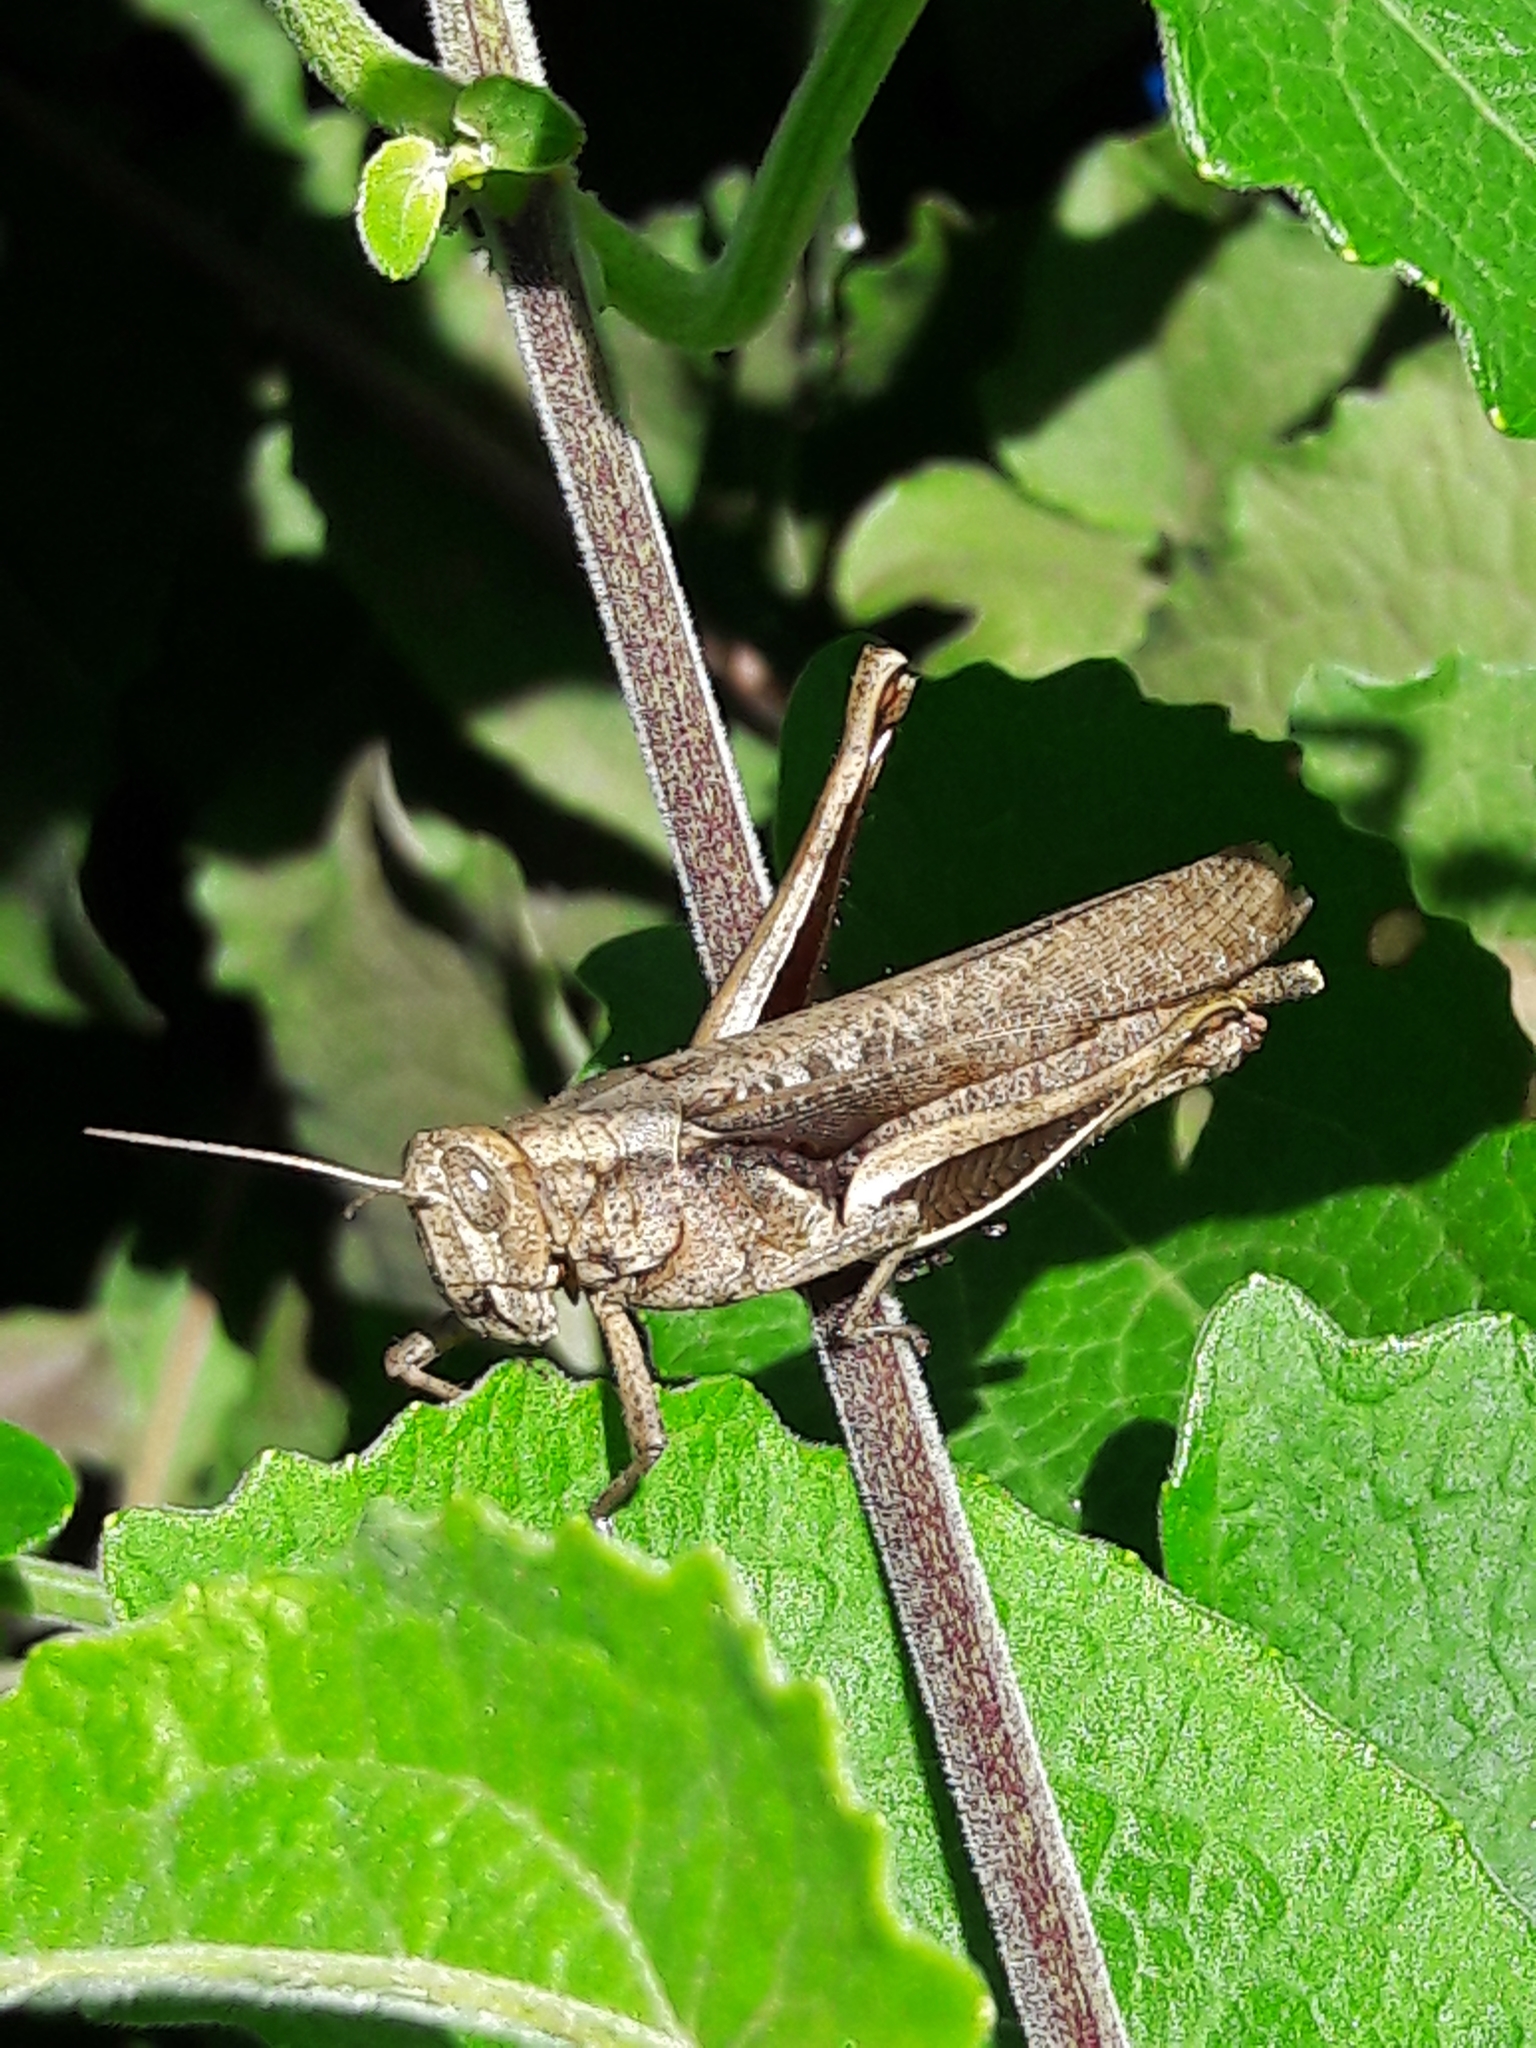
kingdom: Animalia
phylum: Arthropoda
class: Insecta
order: Orthoptera
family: Acrididae
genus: Abracris
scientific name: Abracris flavolineata
